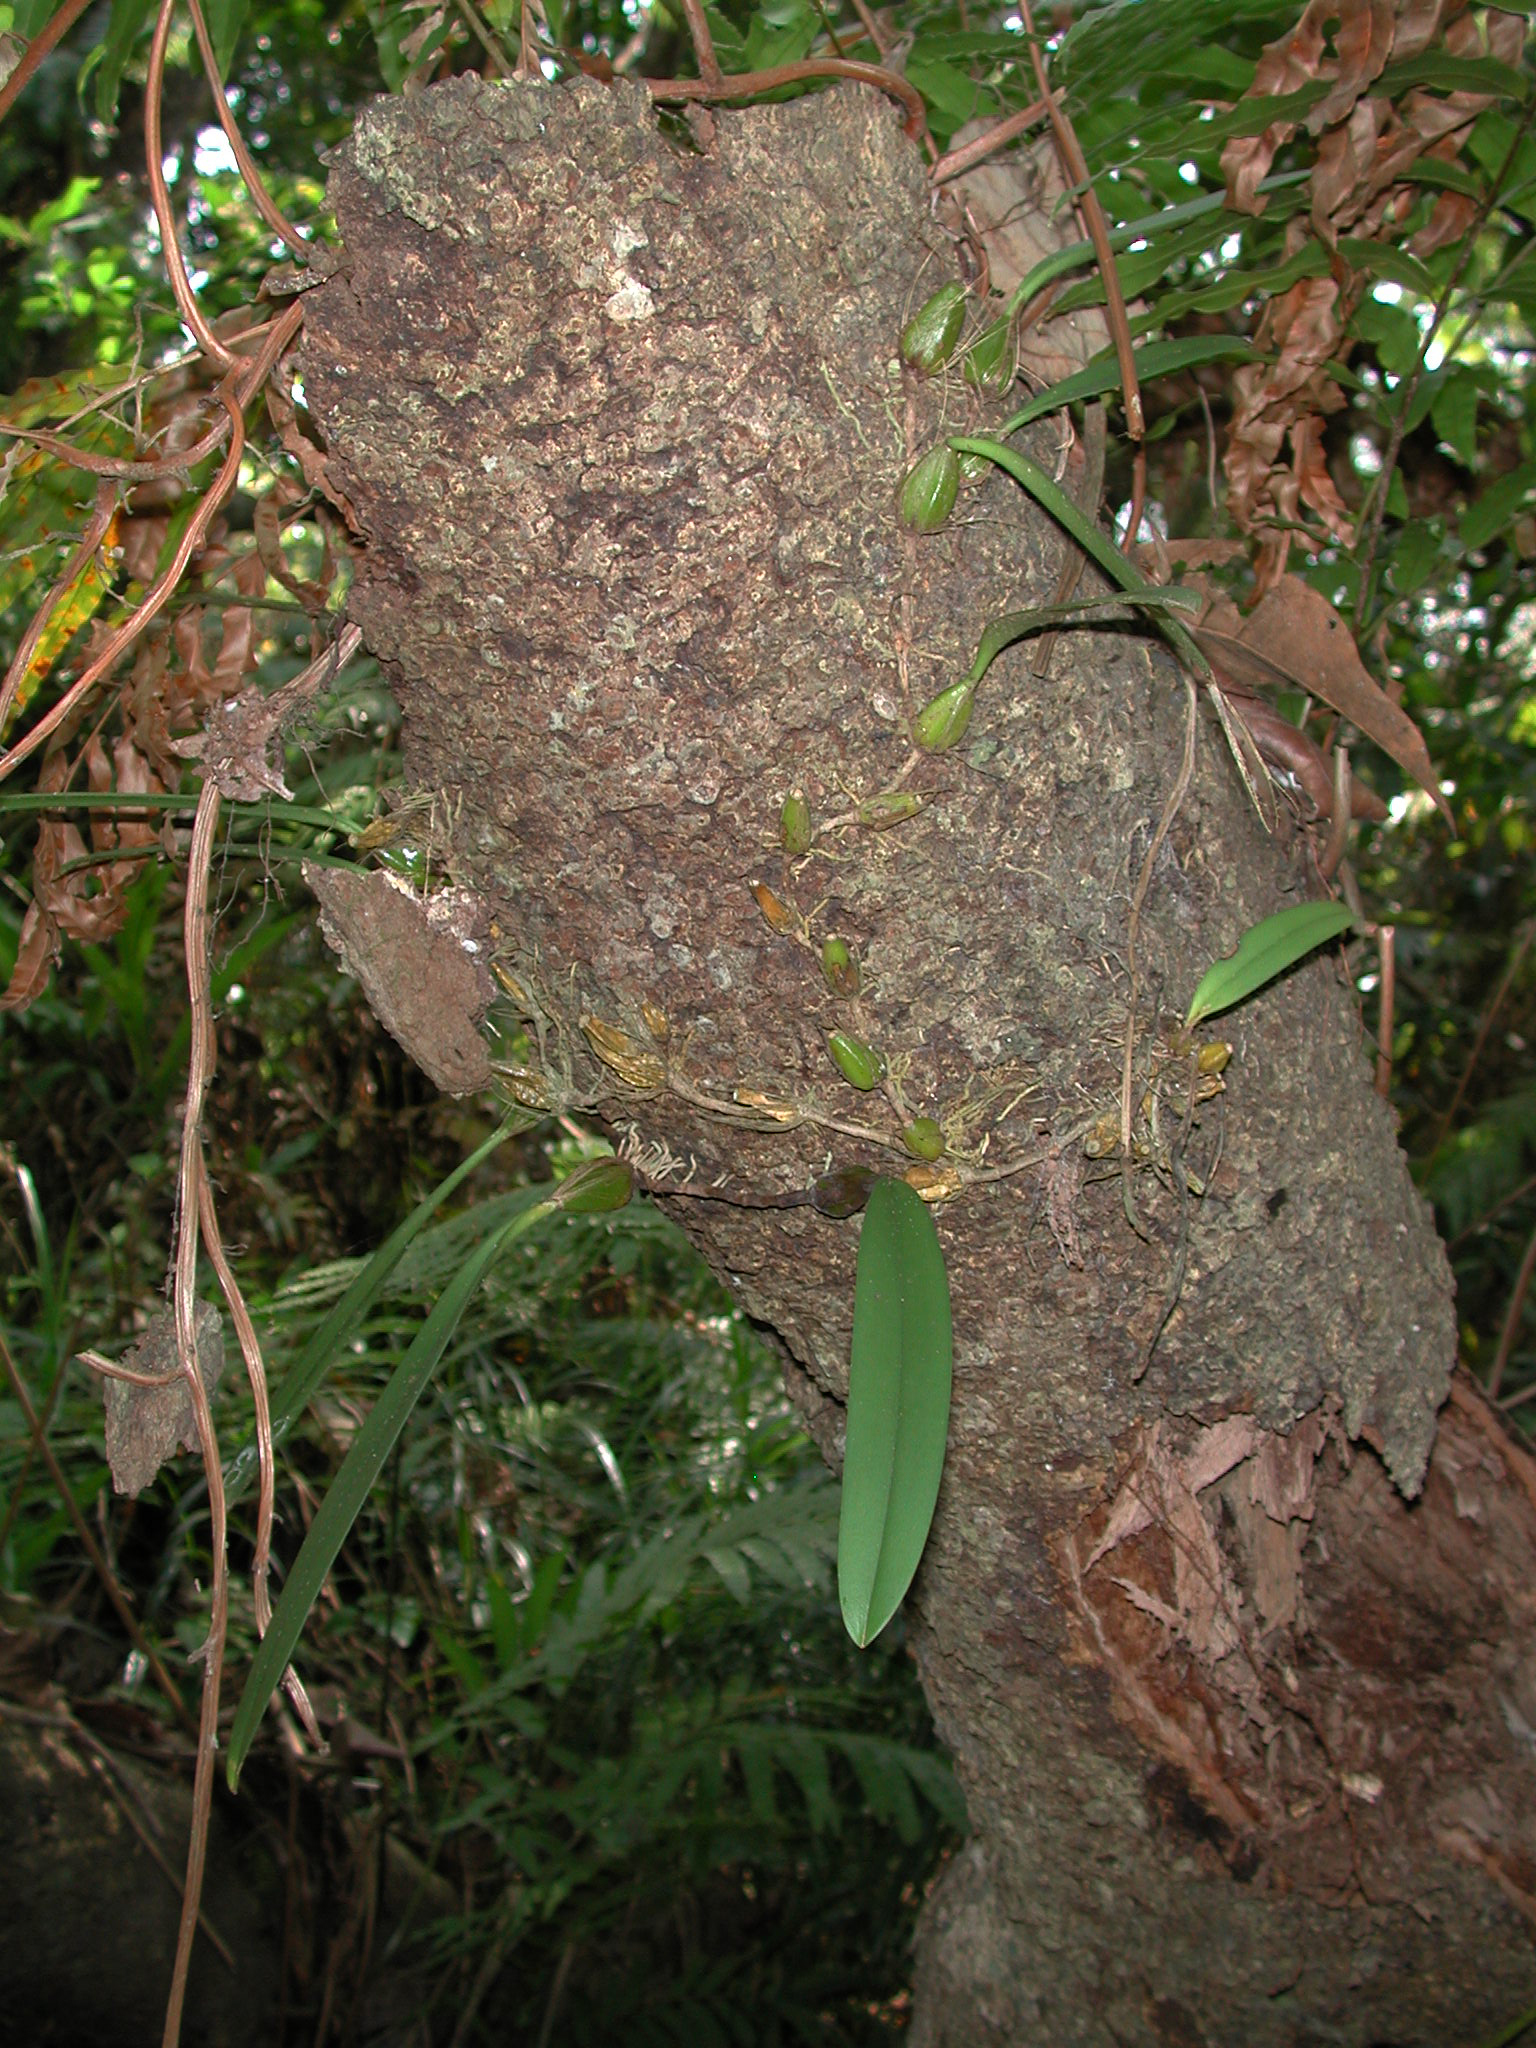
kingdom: Plantae
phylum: Tracheophyta
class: Liliopsida
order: Asparagales
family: Orchidaceae
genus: Bulbophyllum
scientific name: Bulbophyllum longiflorum
